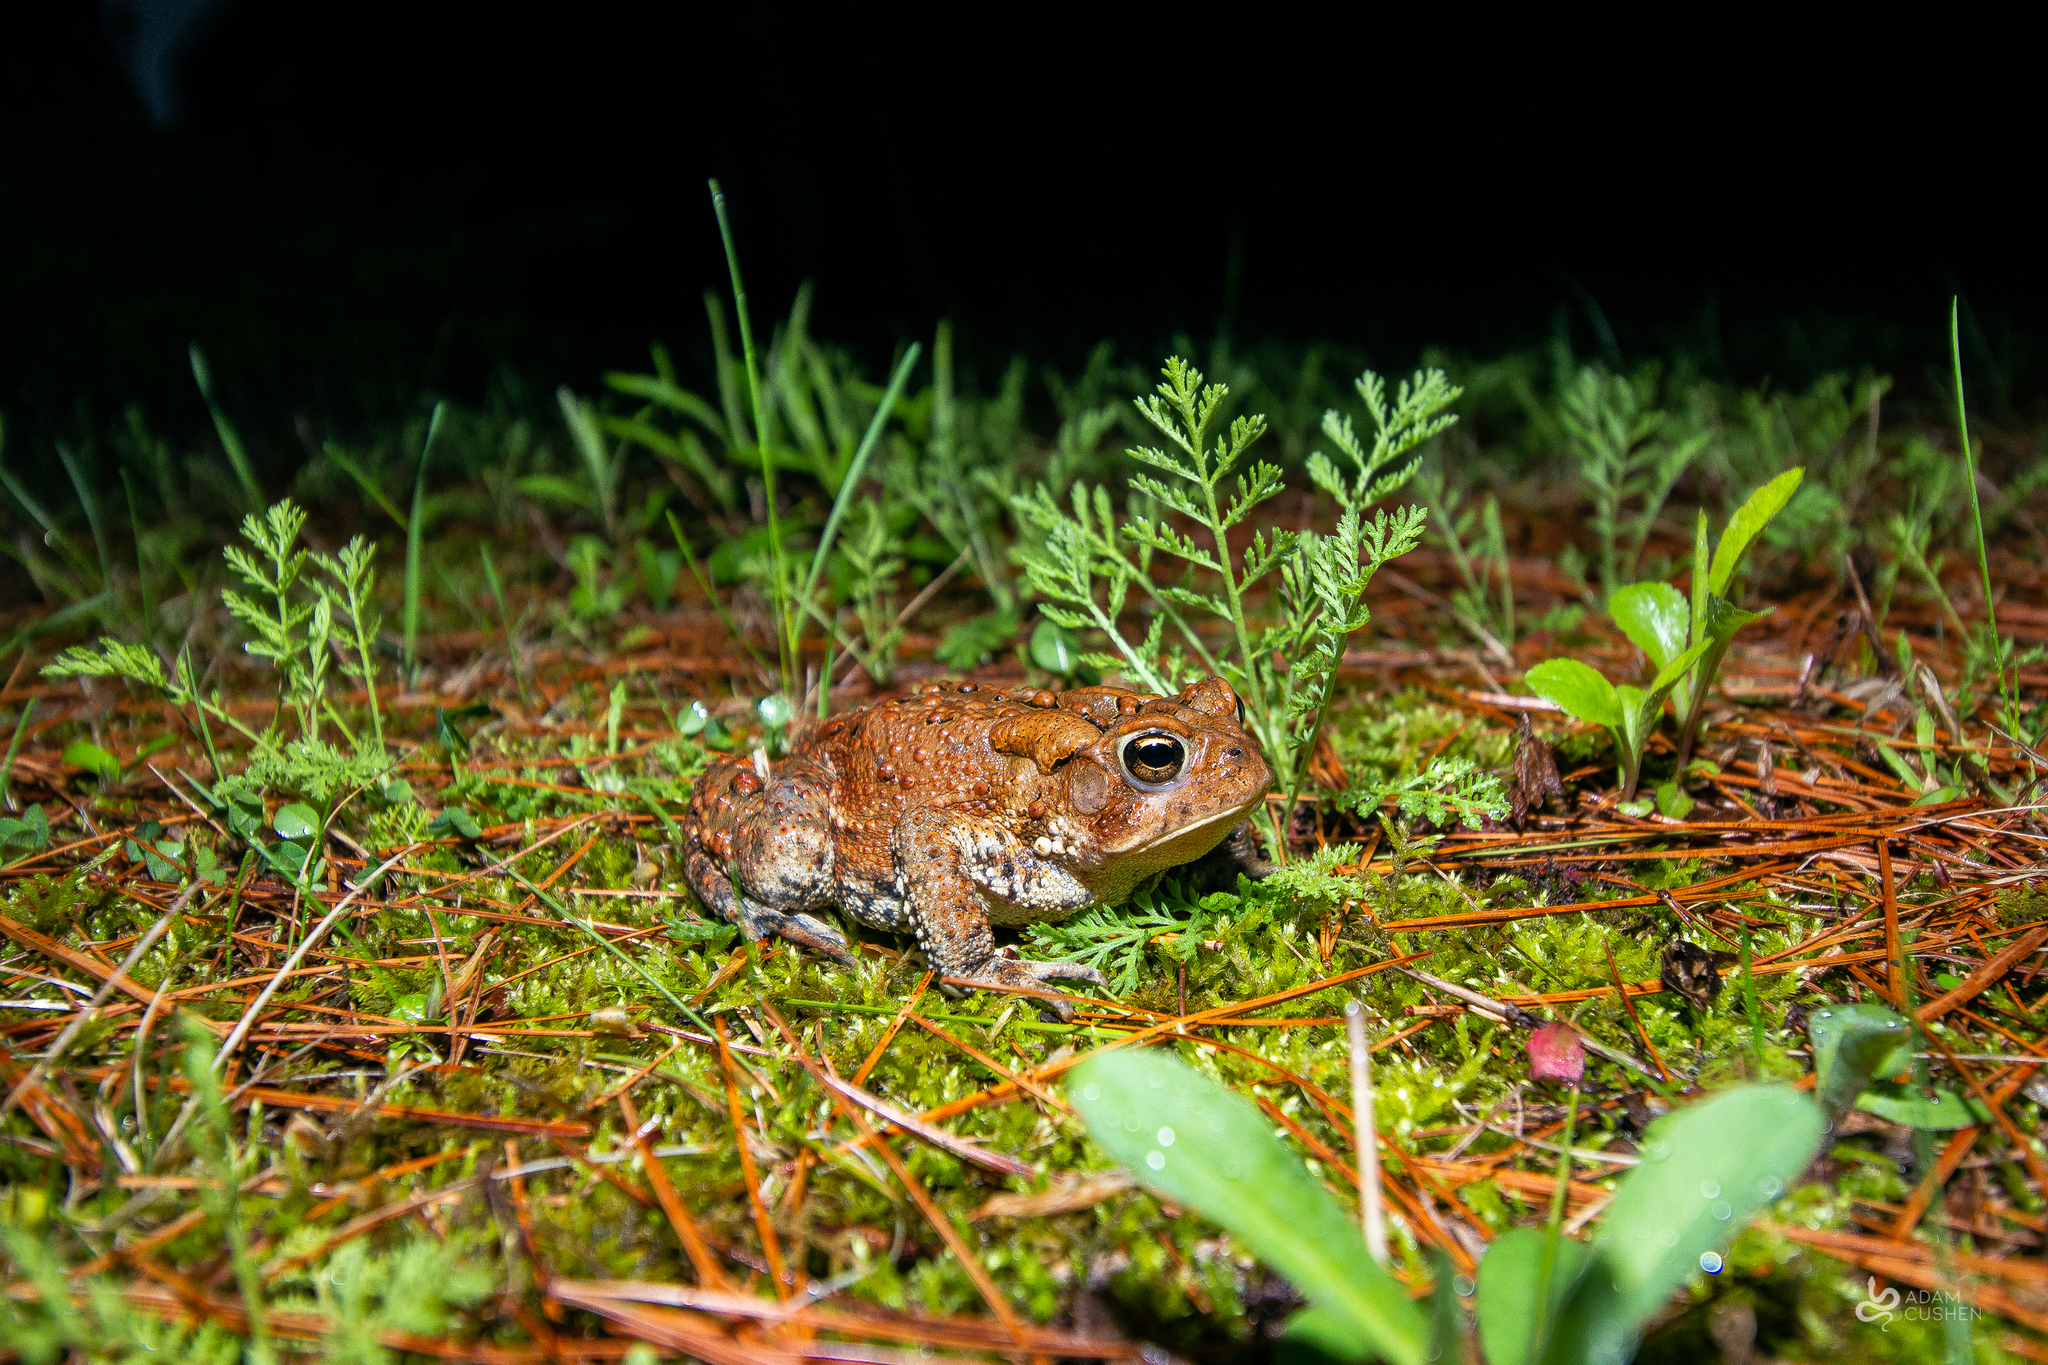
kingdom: Animalia
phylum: Chordata
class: Amphibia
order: Anura
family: Bufonidae
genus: Anaxyrus
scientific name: Anaxyrus americanus
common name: American toad
